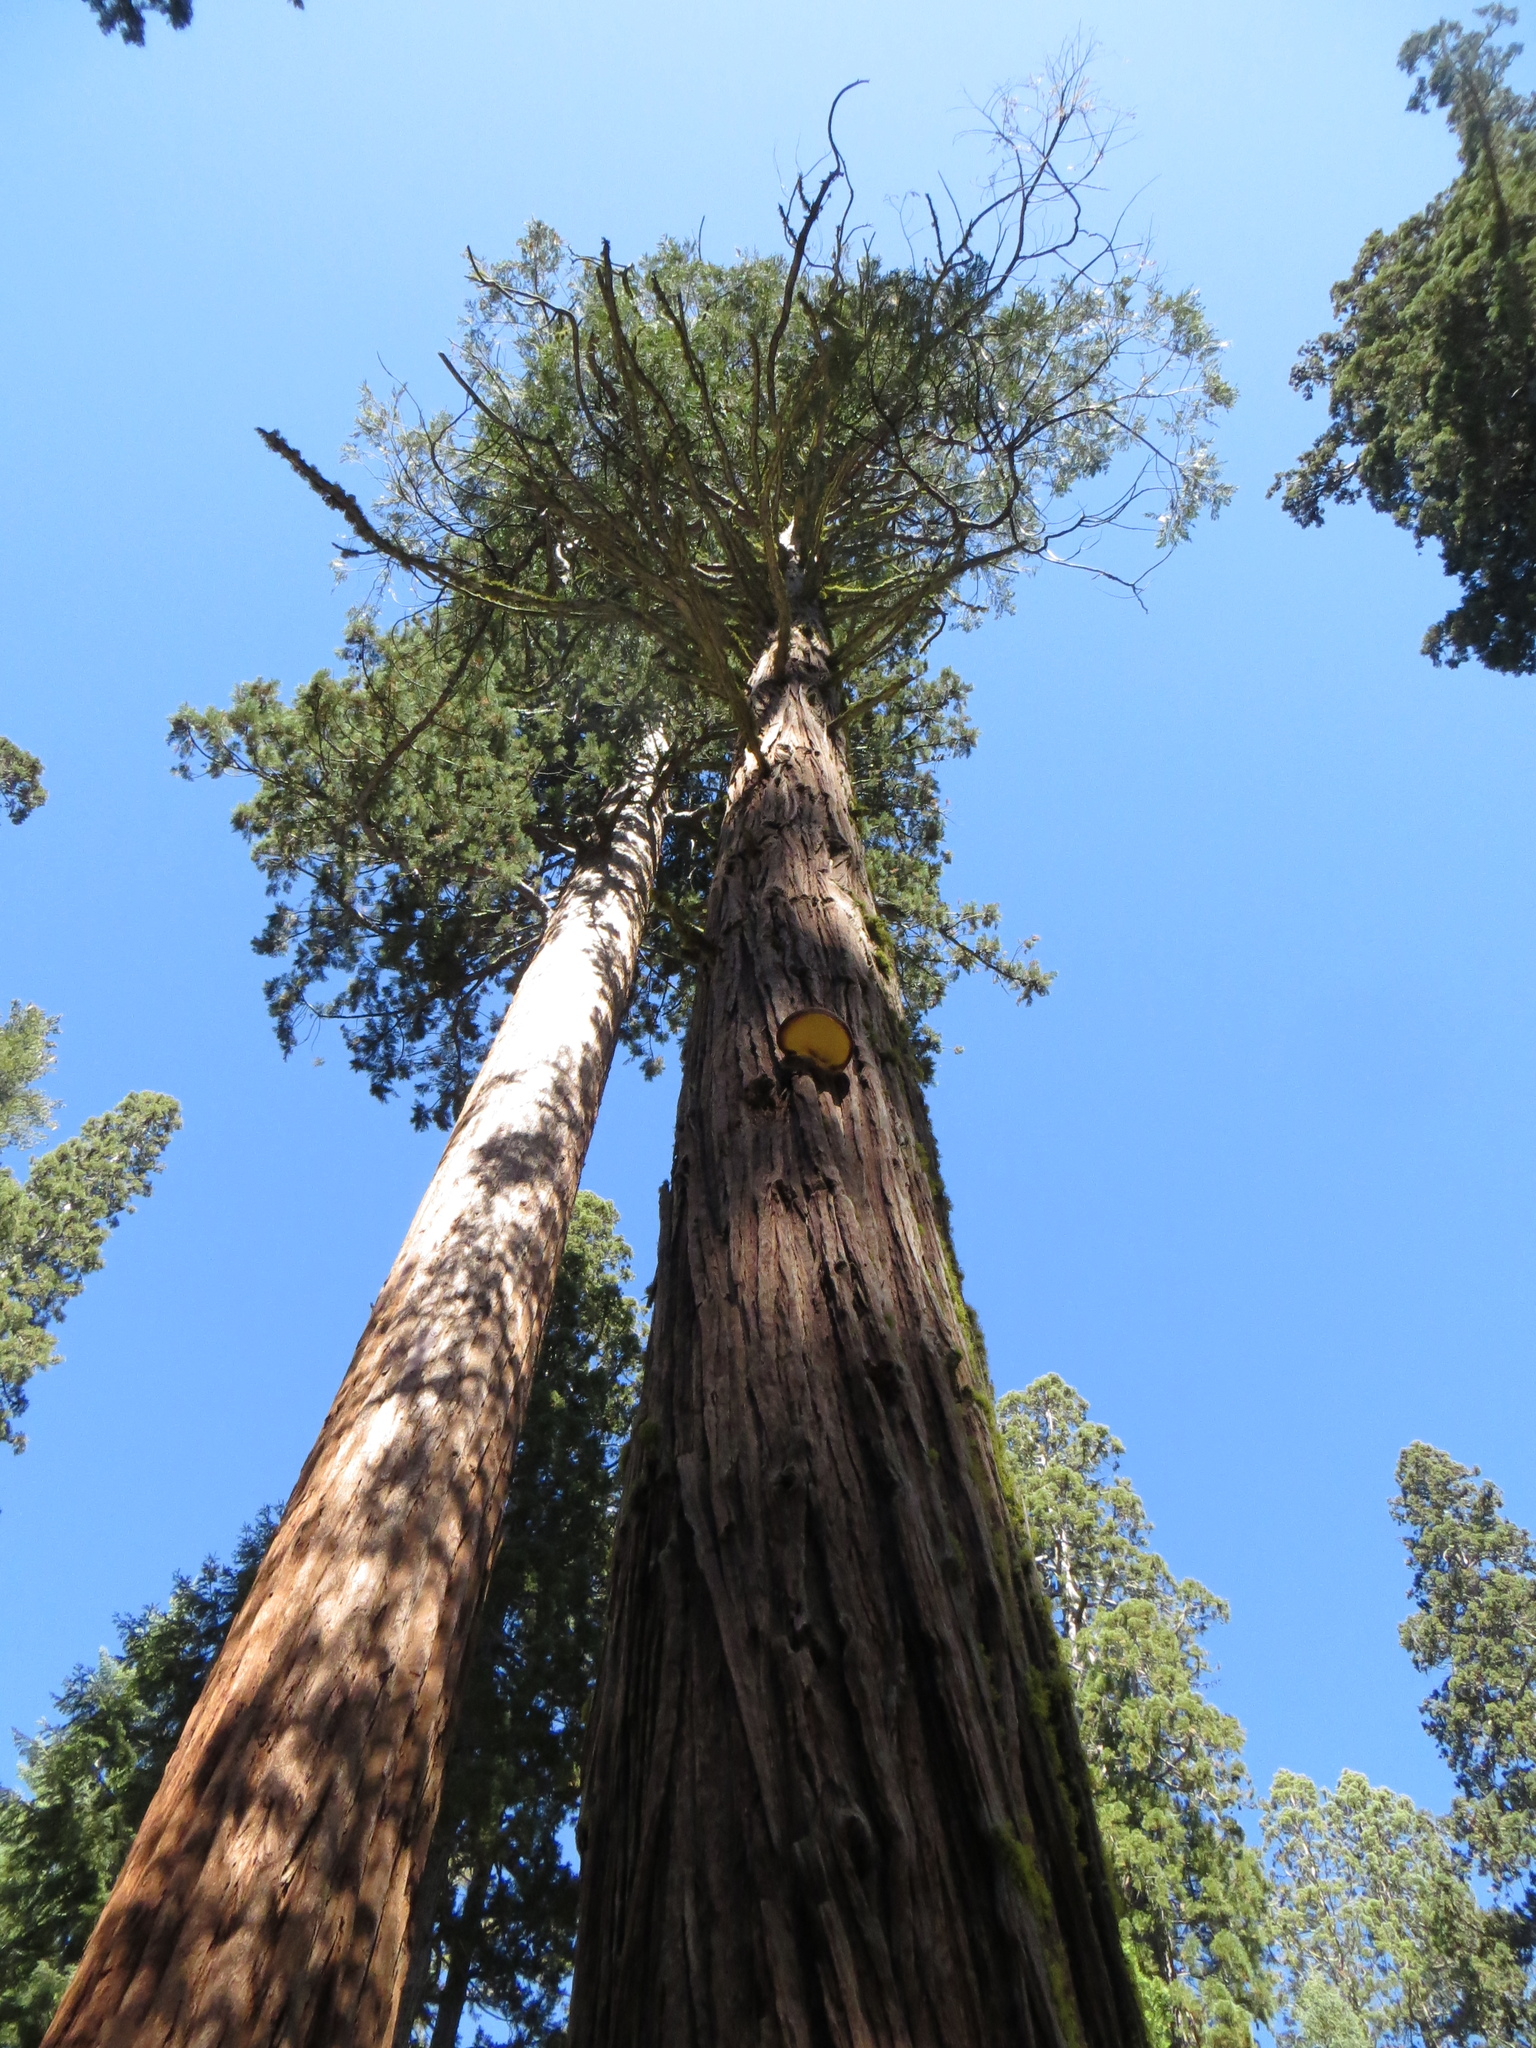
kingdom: Fungi
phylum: Basidiomycota
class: Agaricomycetes
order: Polyporales
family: Incrustoporiaceae
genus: Tyromyces
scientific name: Tyromyces amarus
